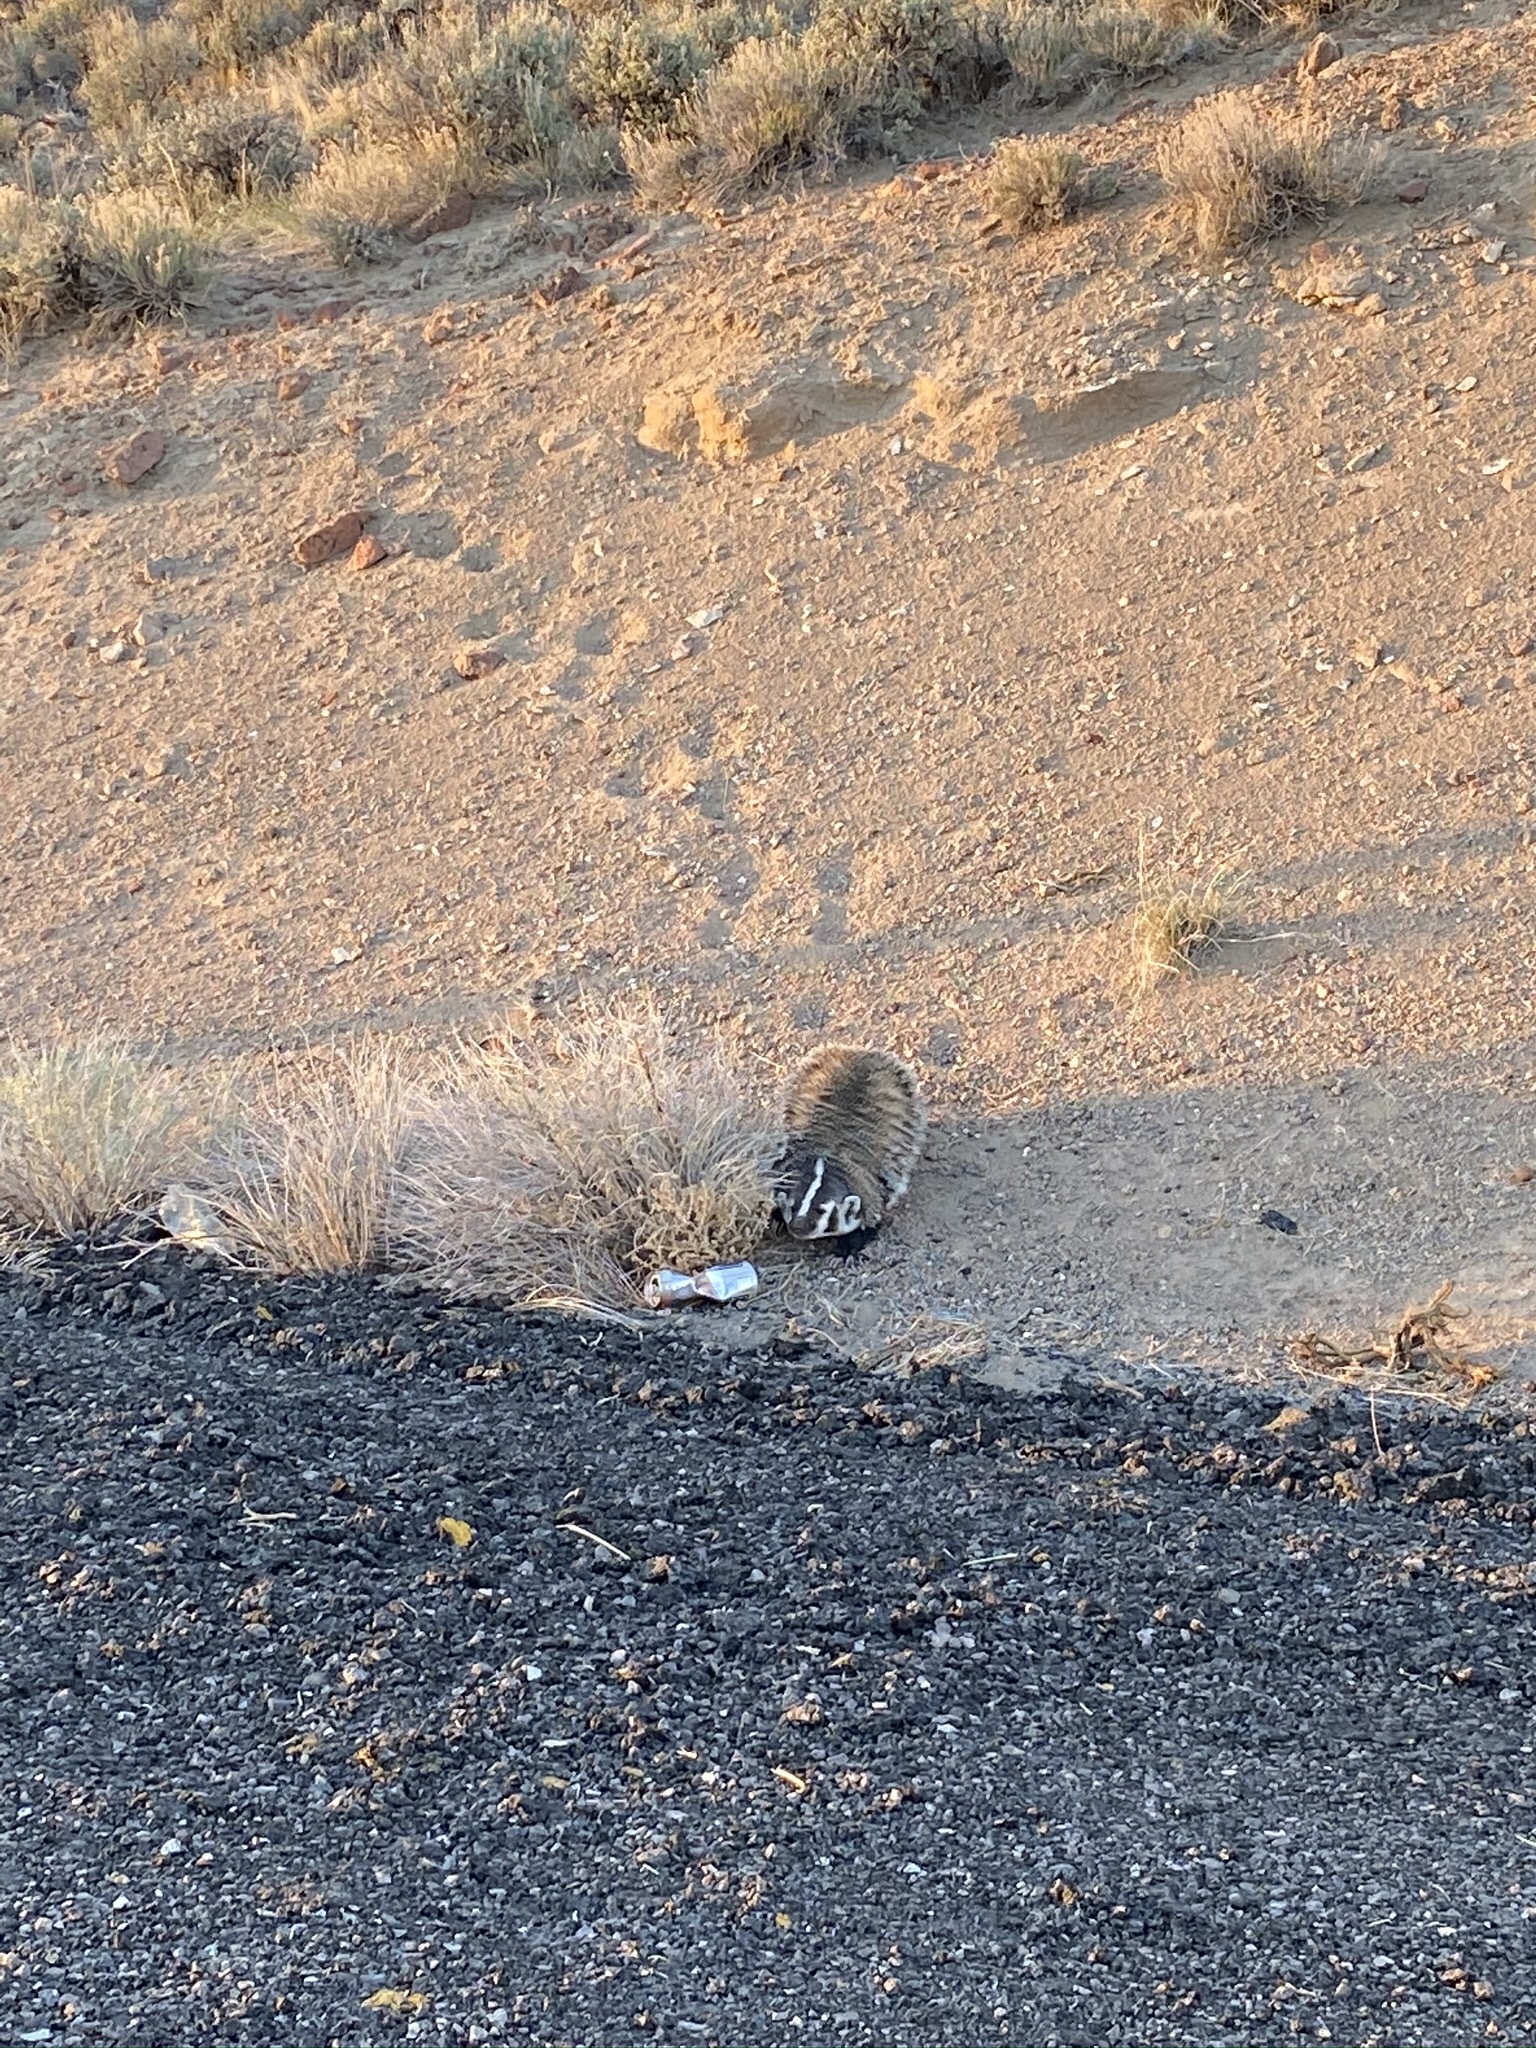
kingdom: Animalia
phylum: Chordata
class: Mammalia
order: Carnivora
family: Mustelidae
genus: Taxidea
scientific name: Taxidea taxus
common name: American badger
